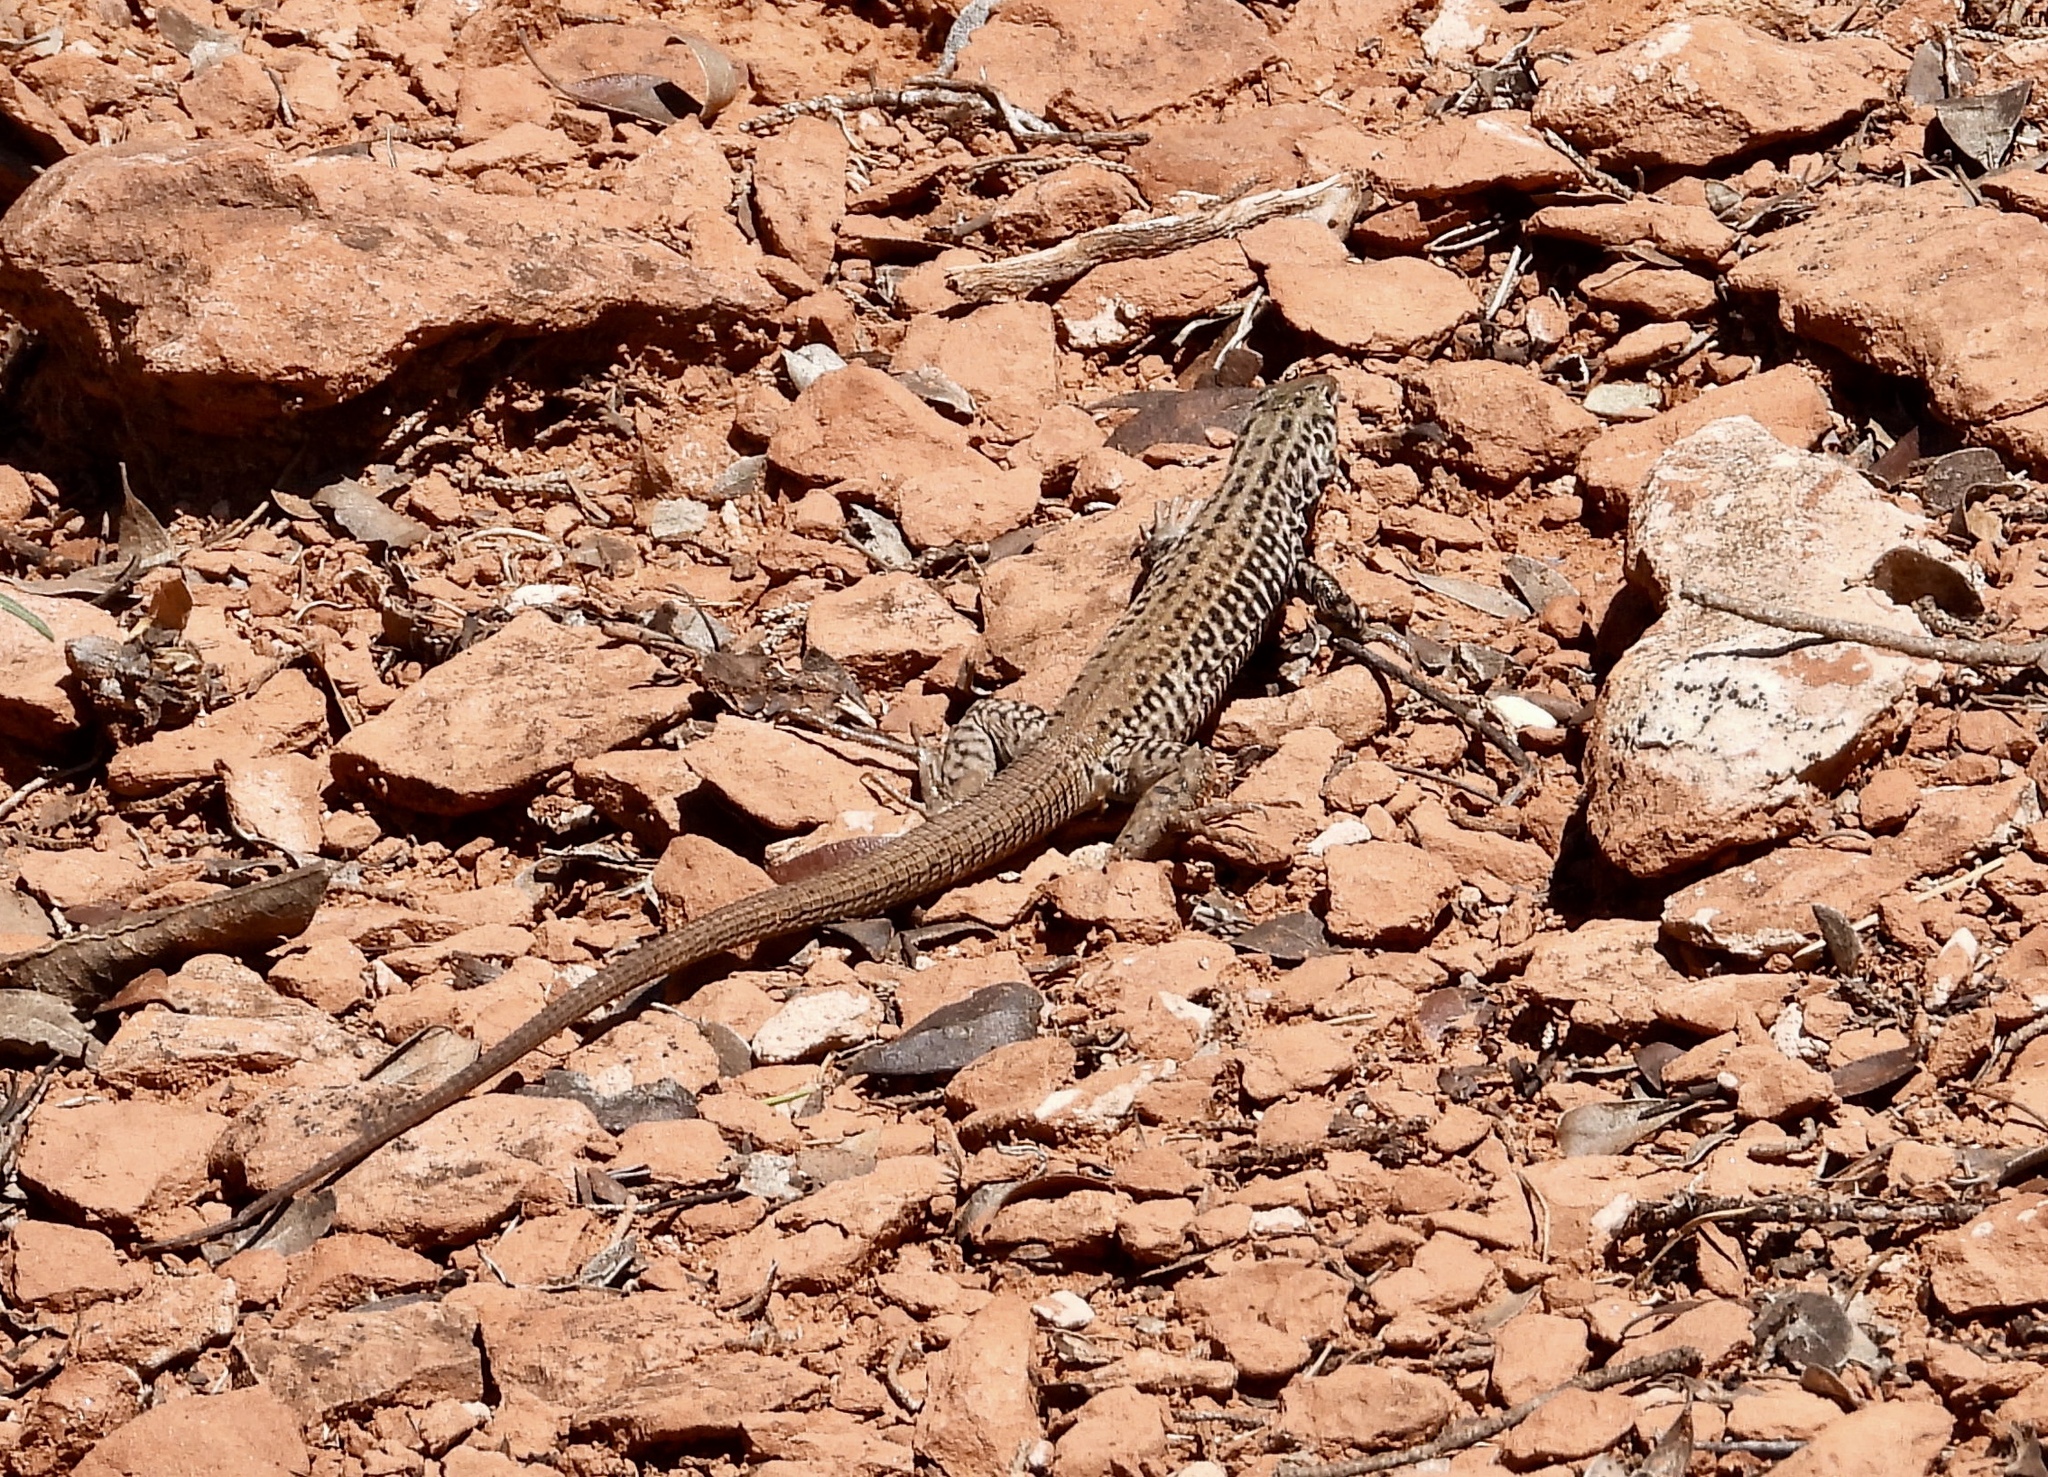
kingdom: Animalia
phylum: Chordata
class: Squamata
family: Teiidae
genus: Aspidoscelis
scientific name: Aspidoscelis tigris
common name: Tiger whiptail
